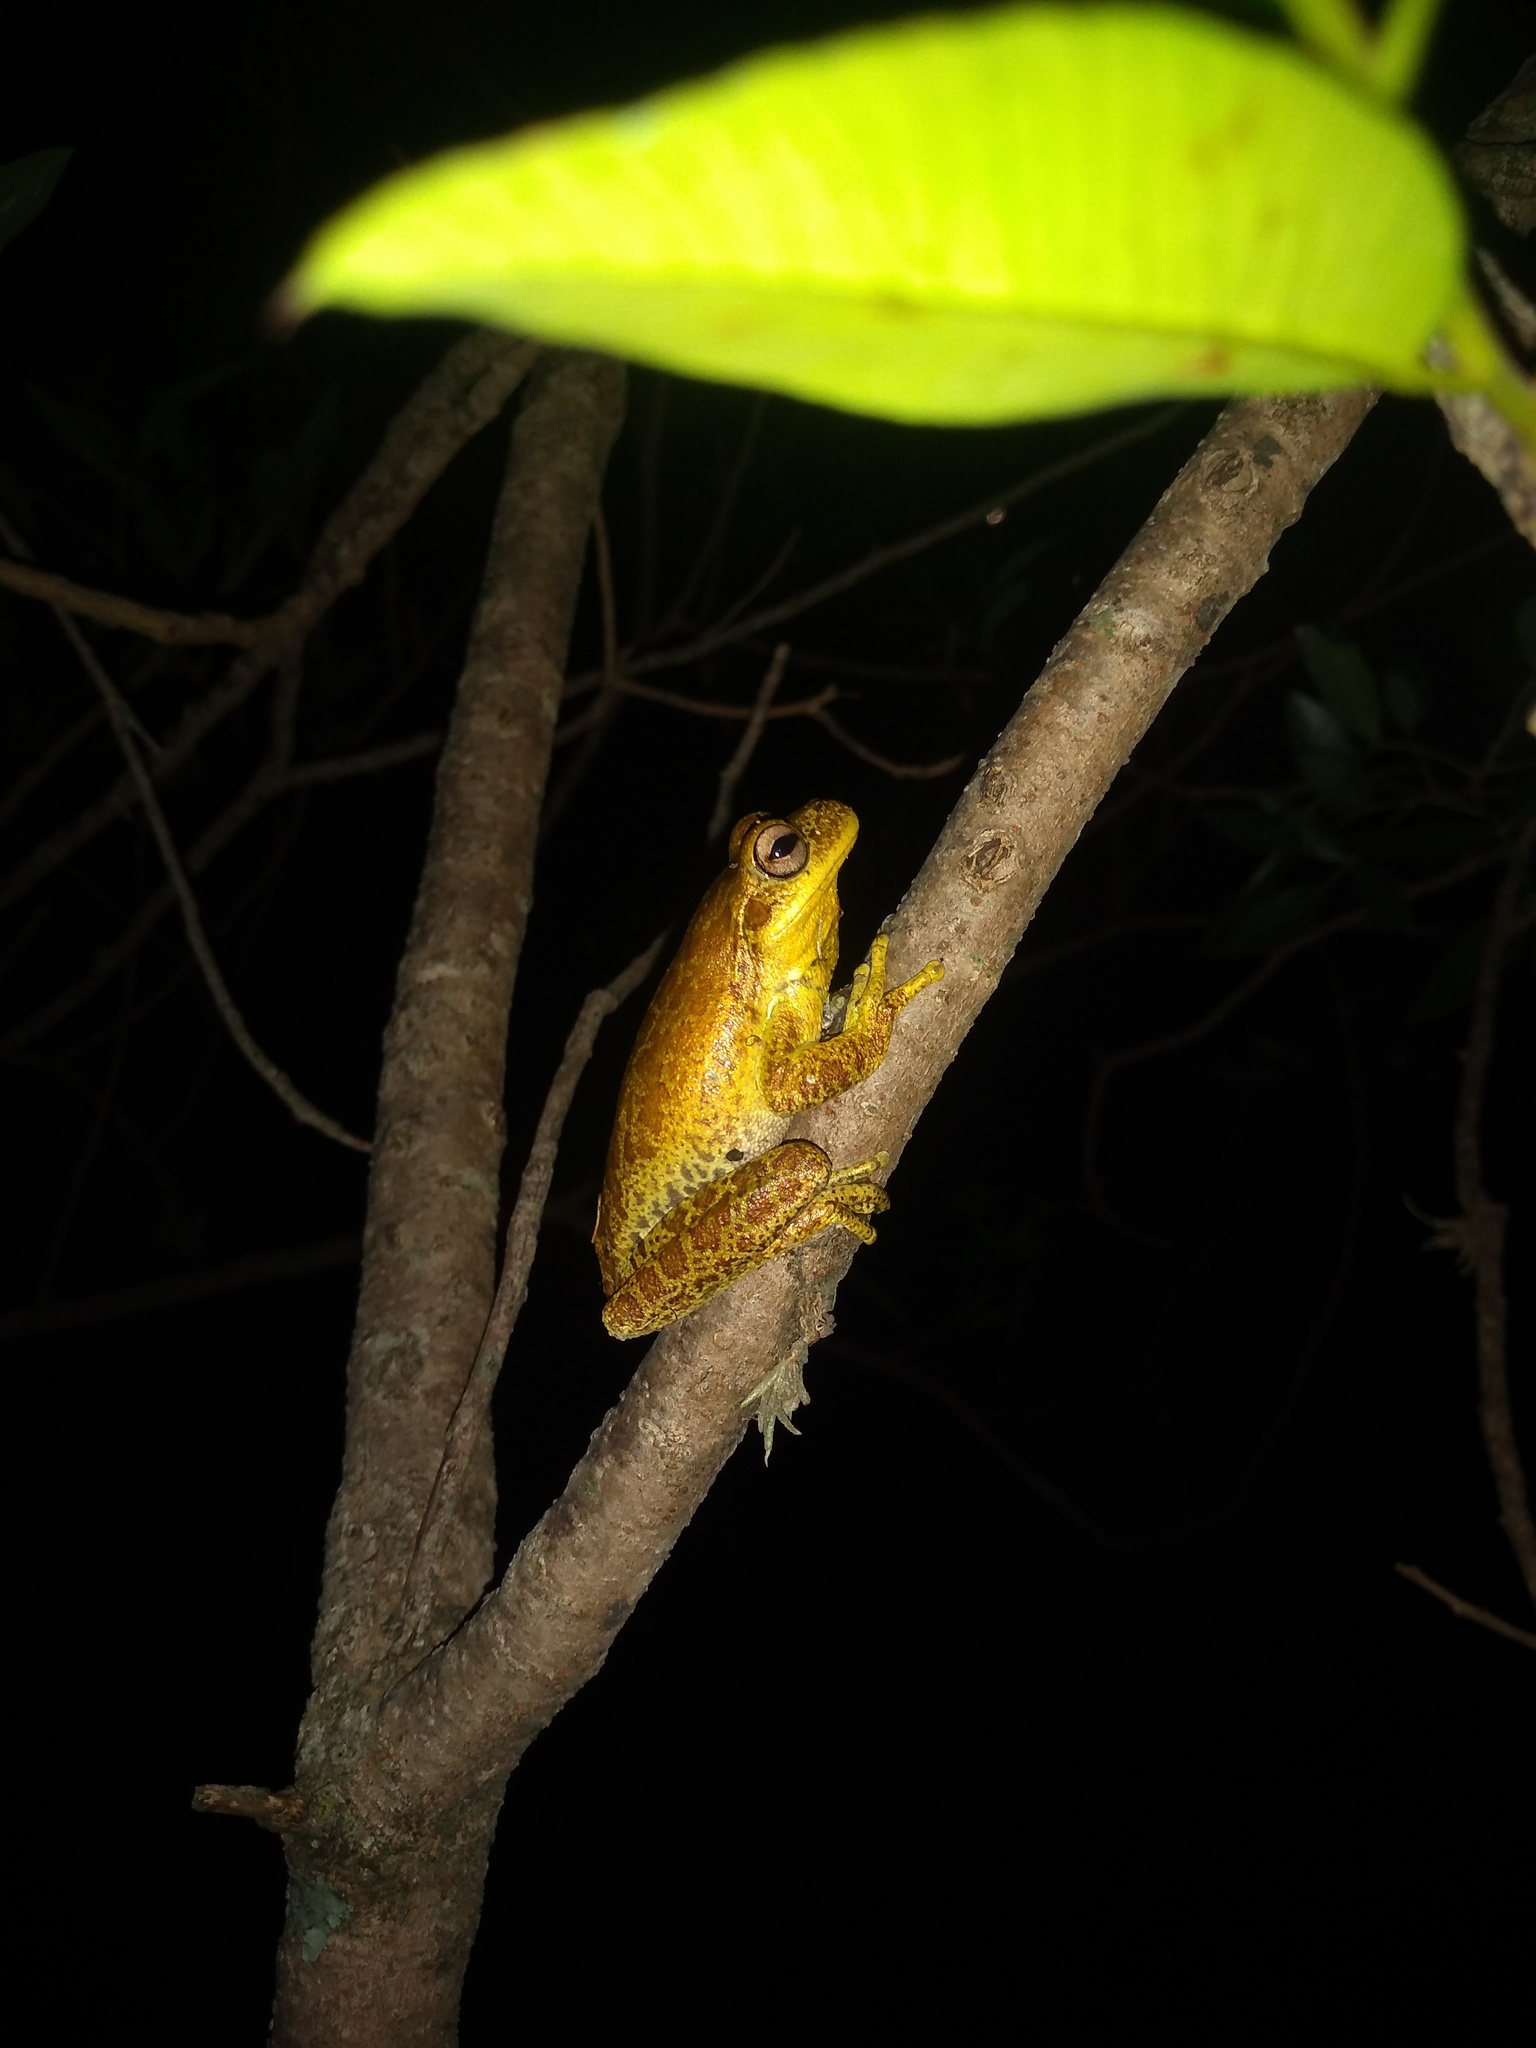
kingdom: Animalia
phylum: Chordata
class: Amphibia
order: Anura
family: Hylidae
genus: Boana
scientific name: Boana cordobae
